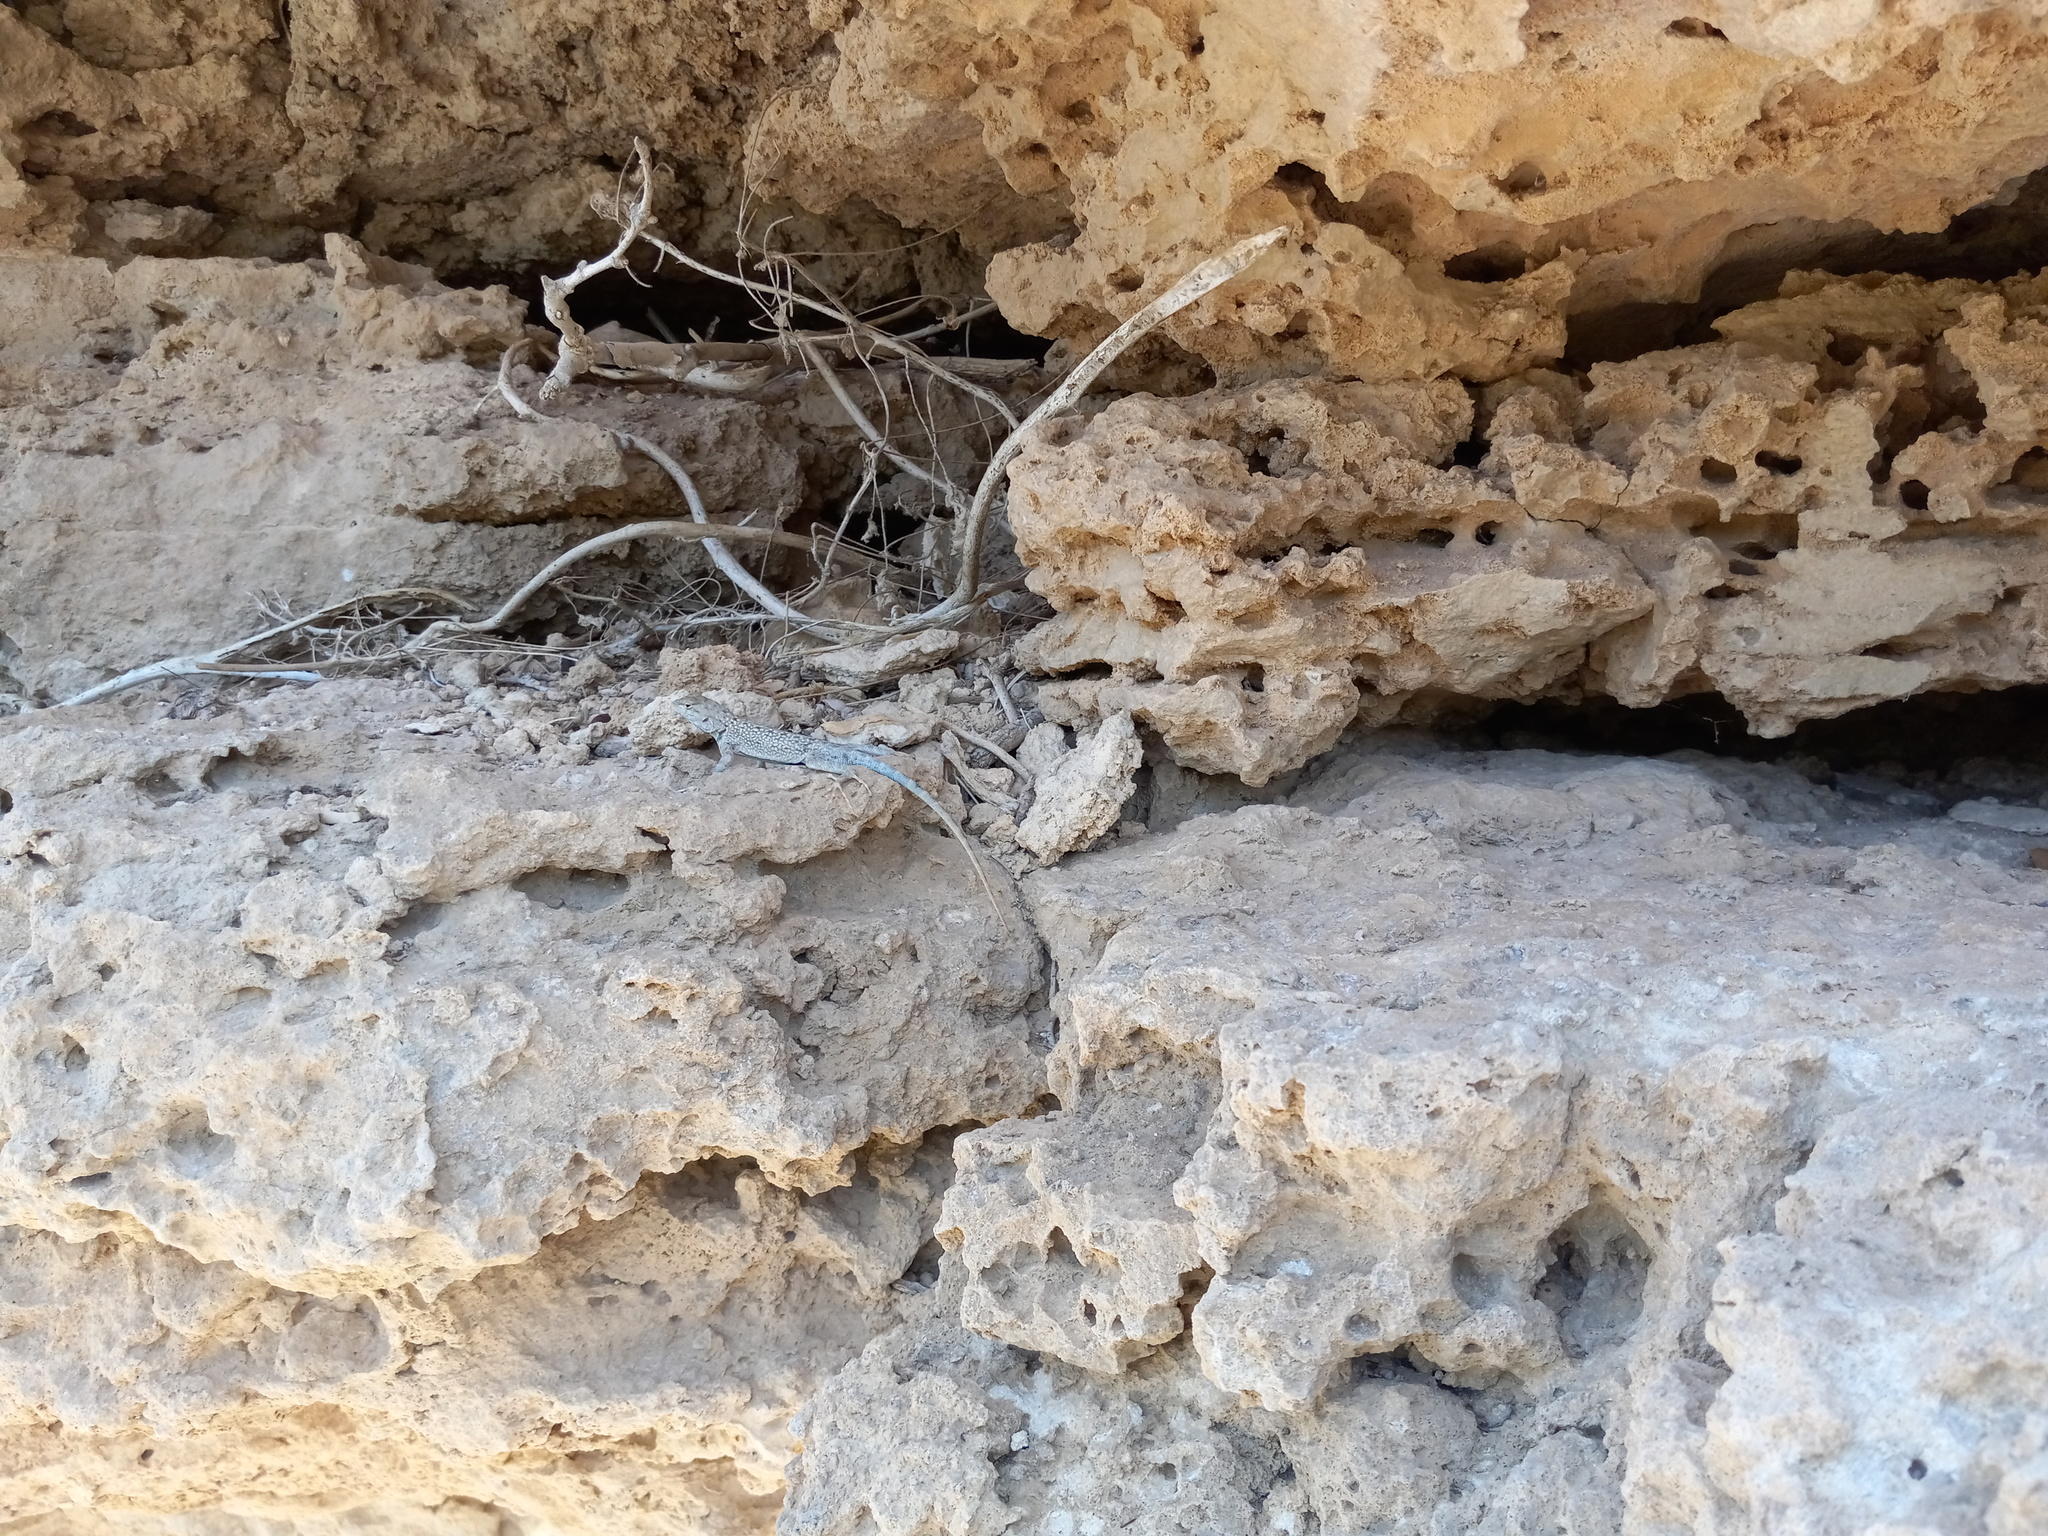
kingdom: Animalia
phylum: Chordata
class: Squamata
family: Phrynosomatidae
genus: Sceloporus
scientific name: Sceloporus merriami
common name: Canyon lizard
